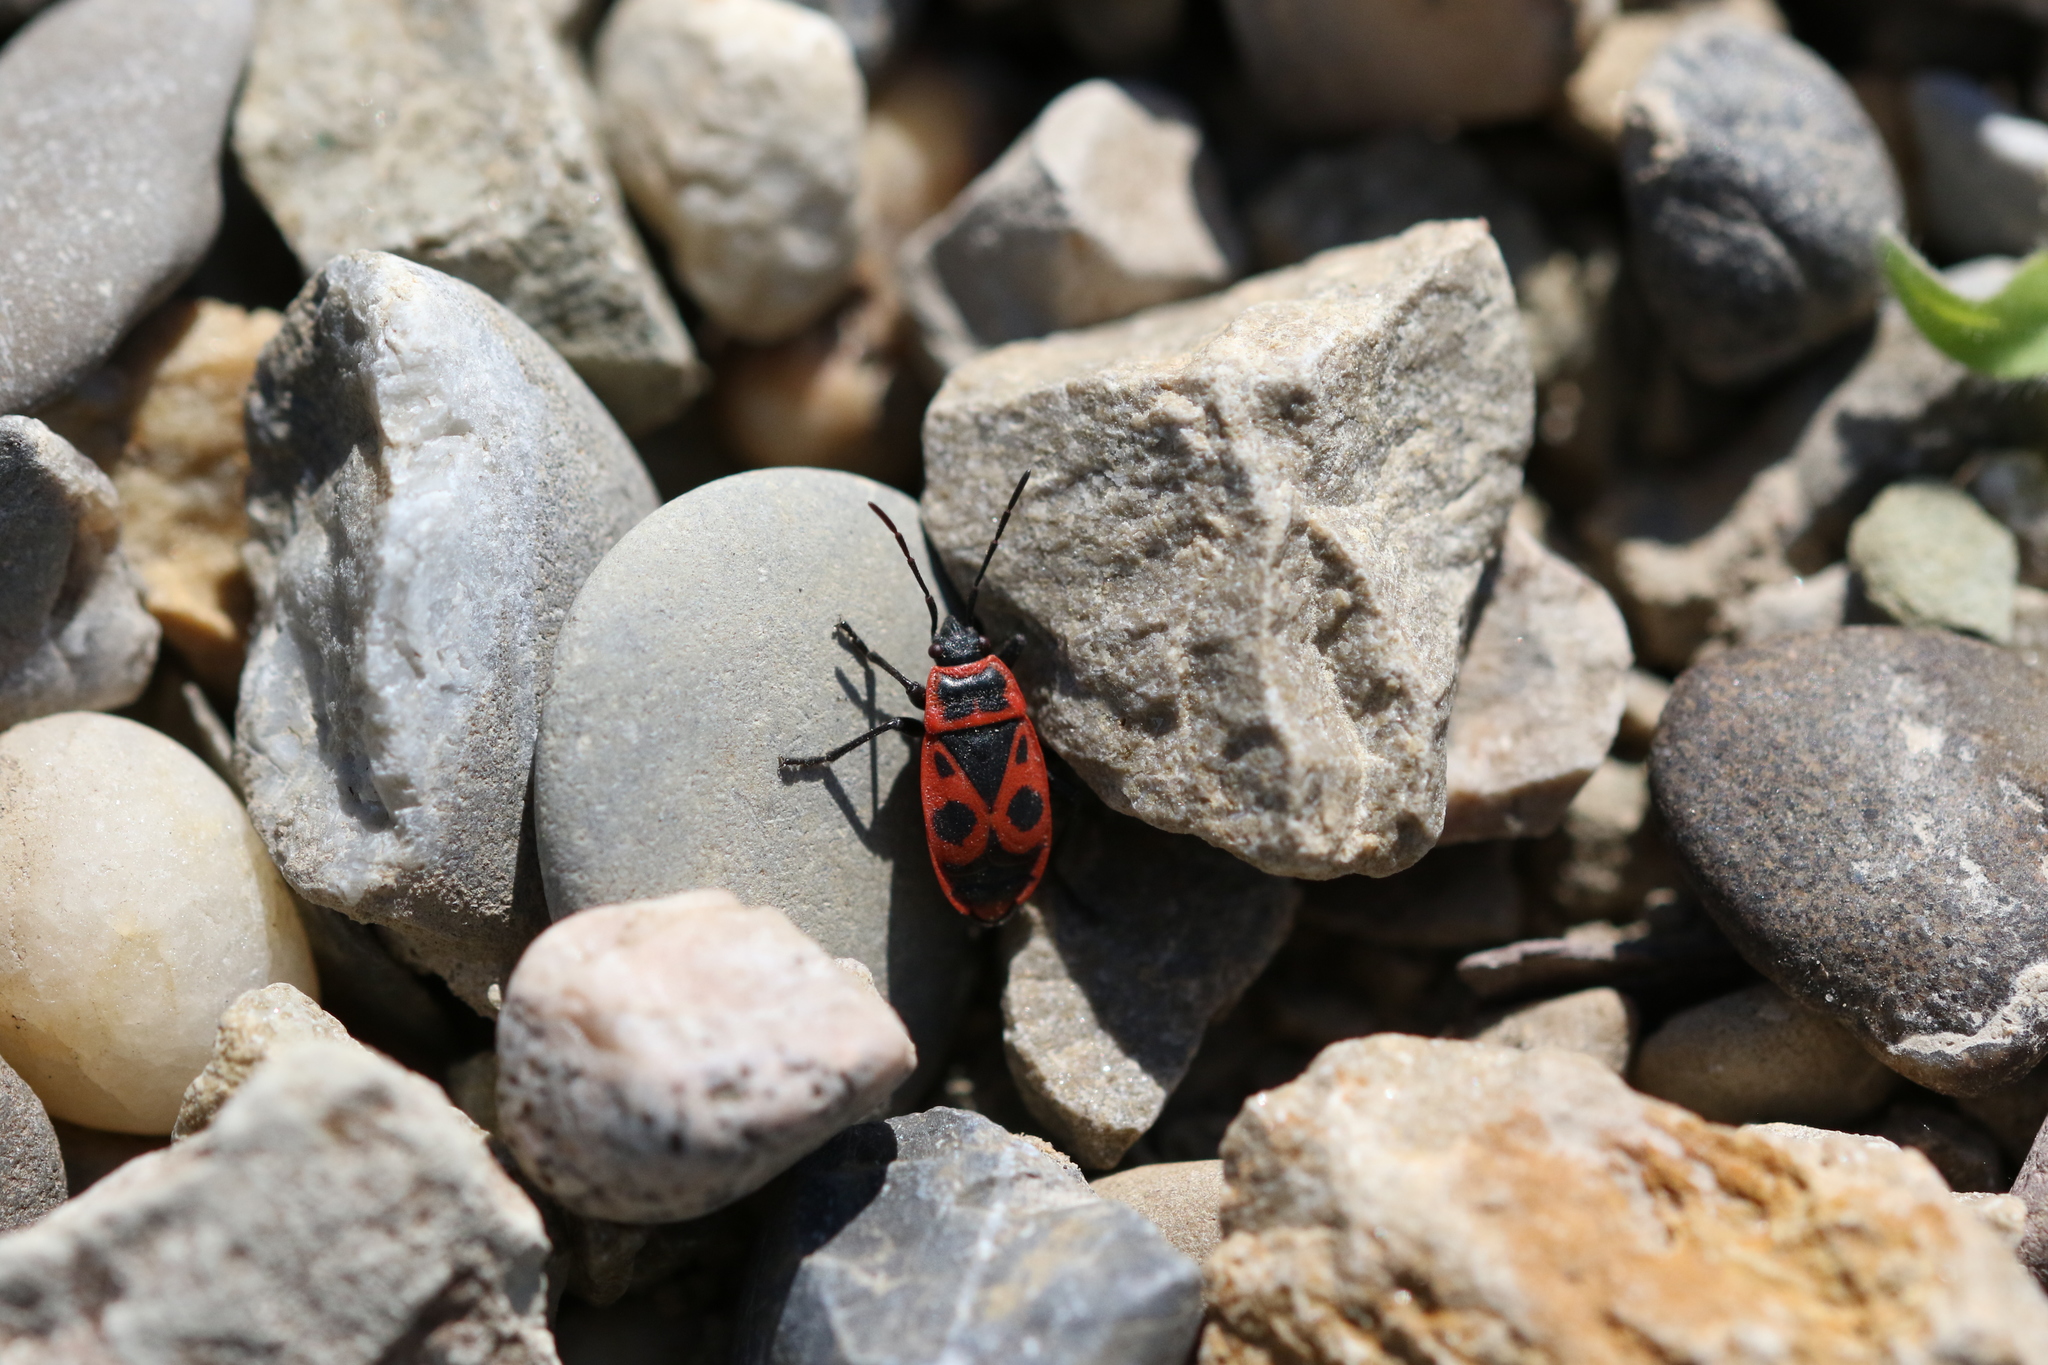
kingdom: Animalia
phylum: Arthropoda
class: Insecta
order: Hemiptera
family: Pyrrhocoridae
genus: Pyrrhocoris
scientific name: Pyrrhocoris apterus
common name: Firebug
